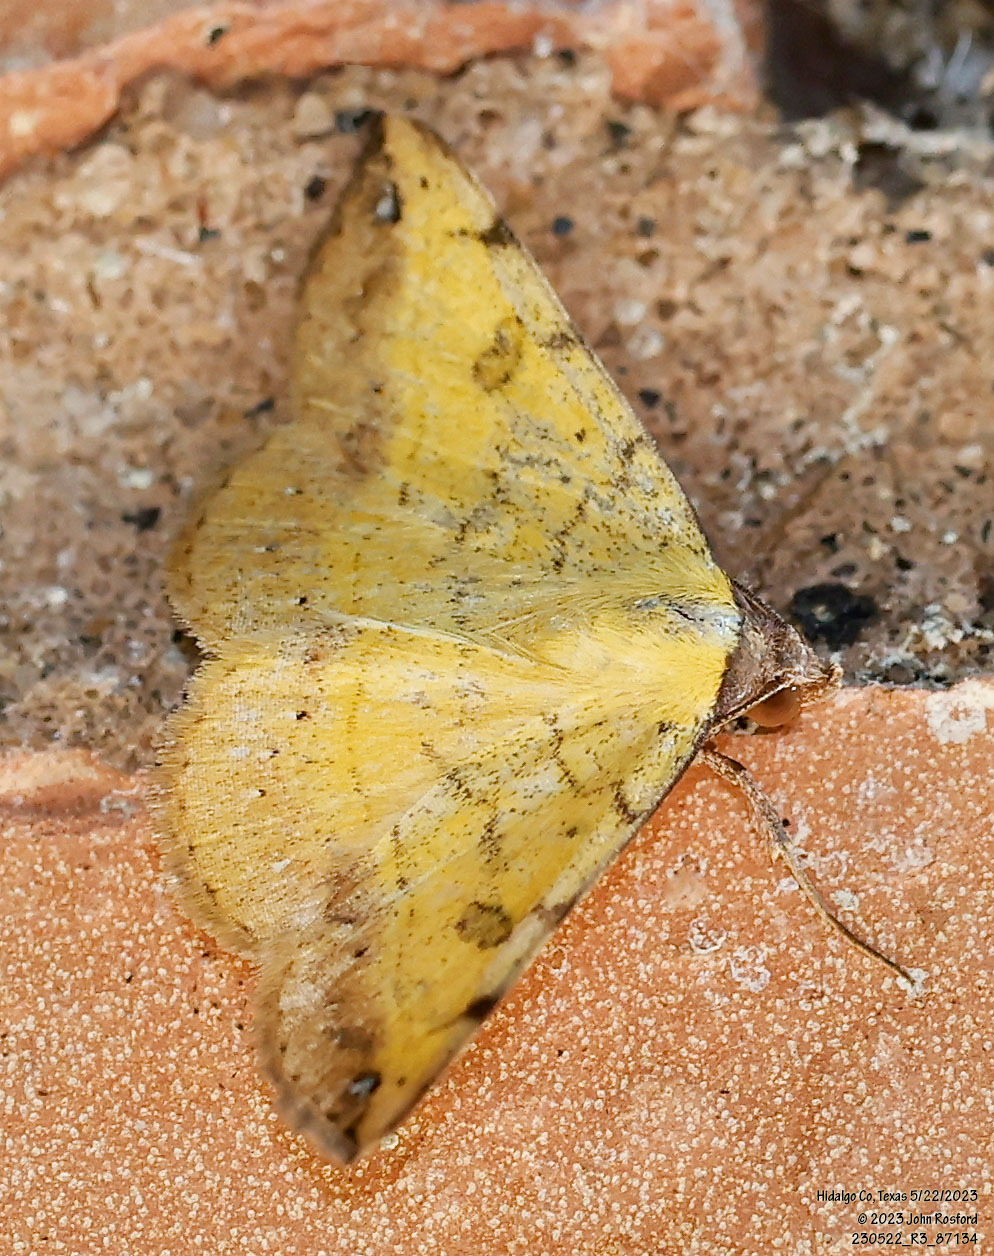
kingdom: Animalia
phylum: Arthropoda
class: Insecta
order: Lepidoptera
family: Erebidae
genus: Hemeroplanis
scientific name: Hemeroplanis scopulepes
